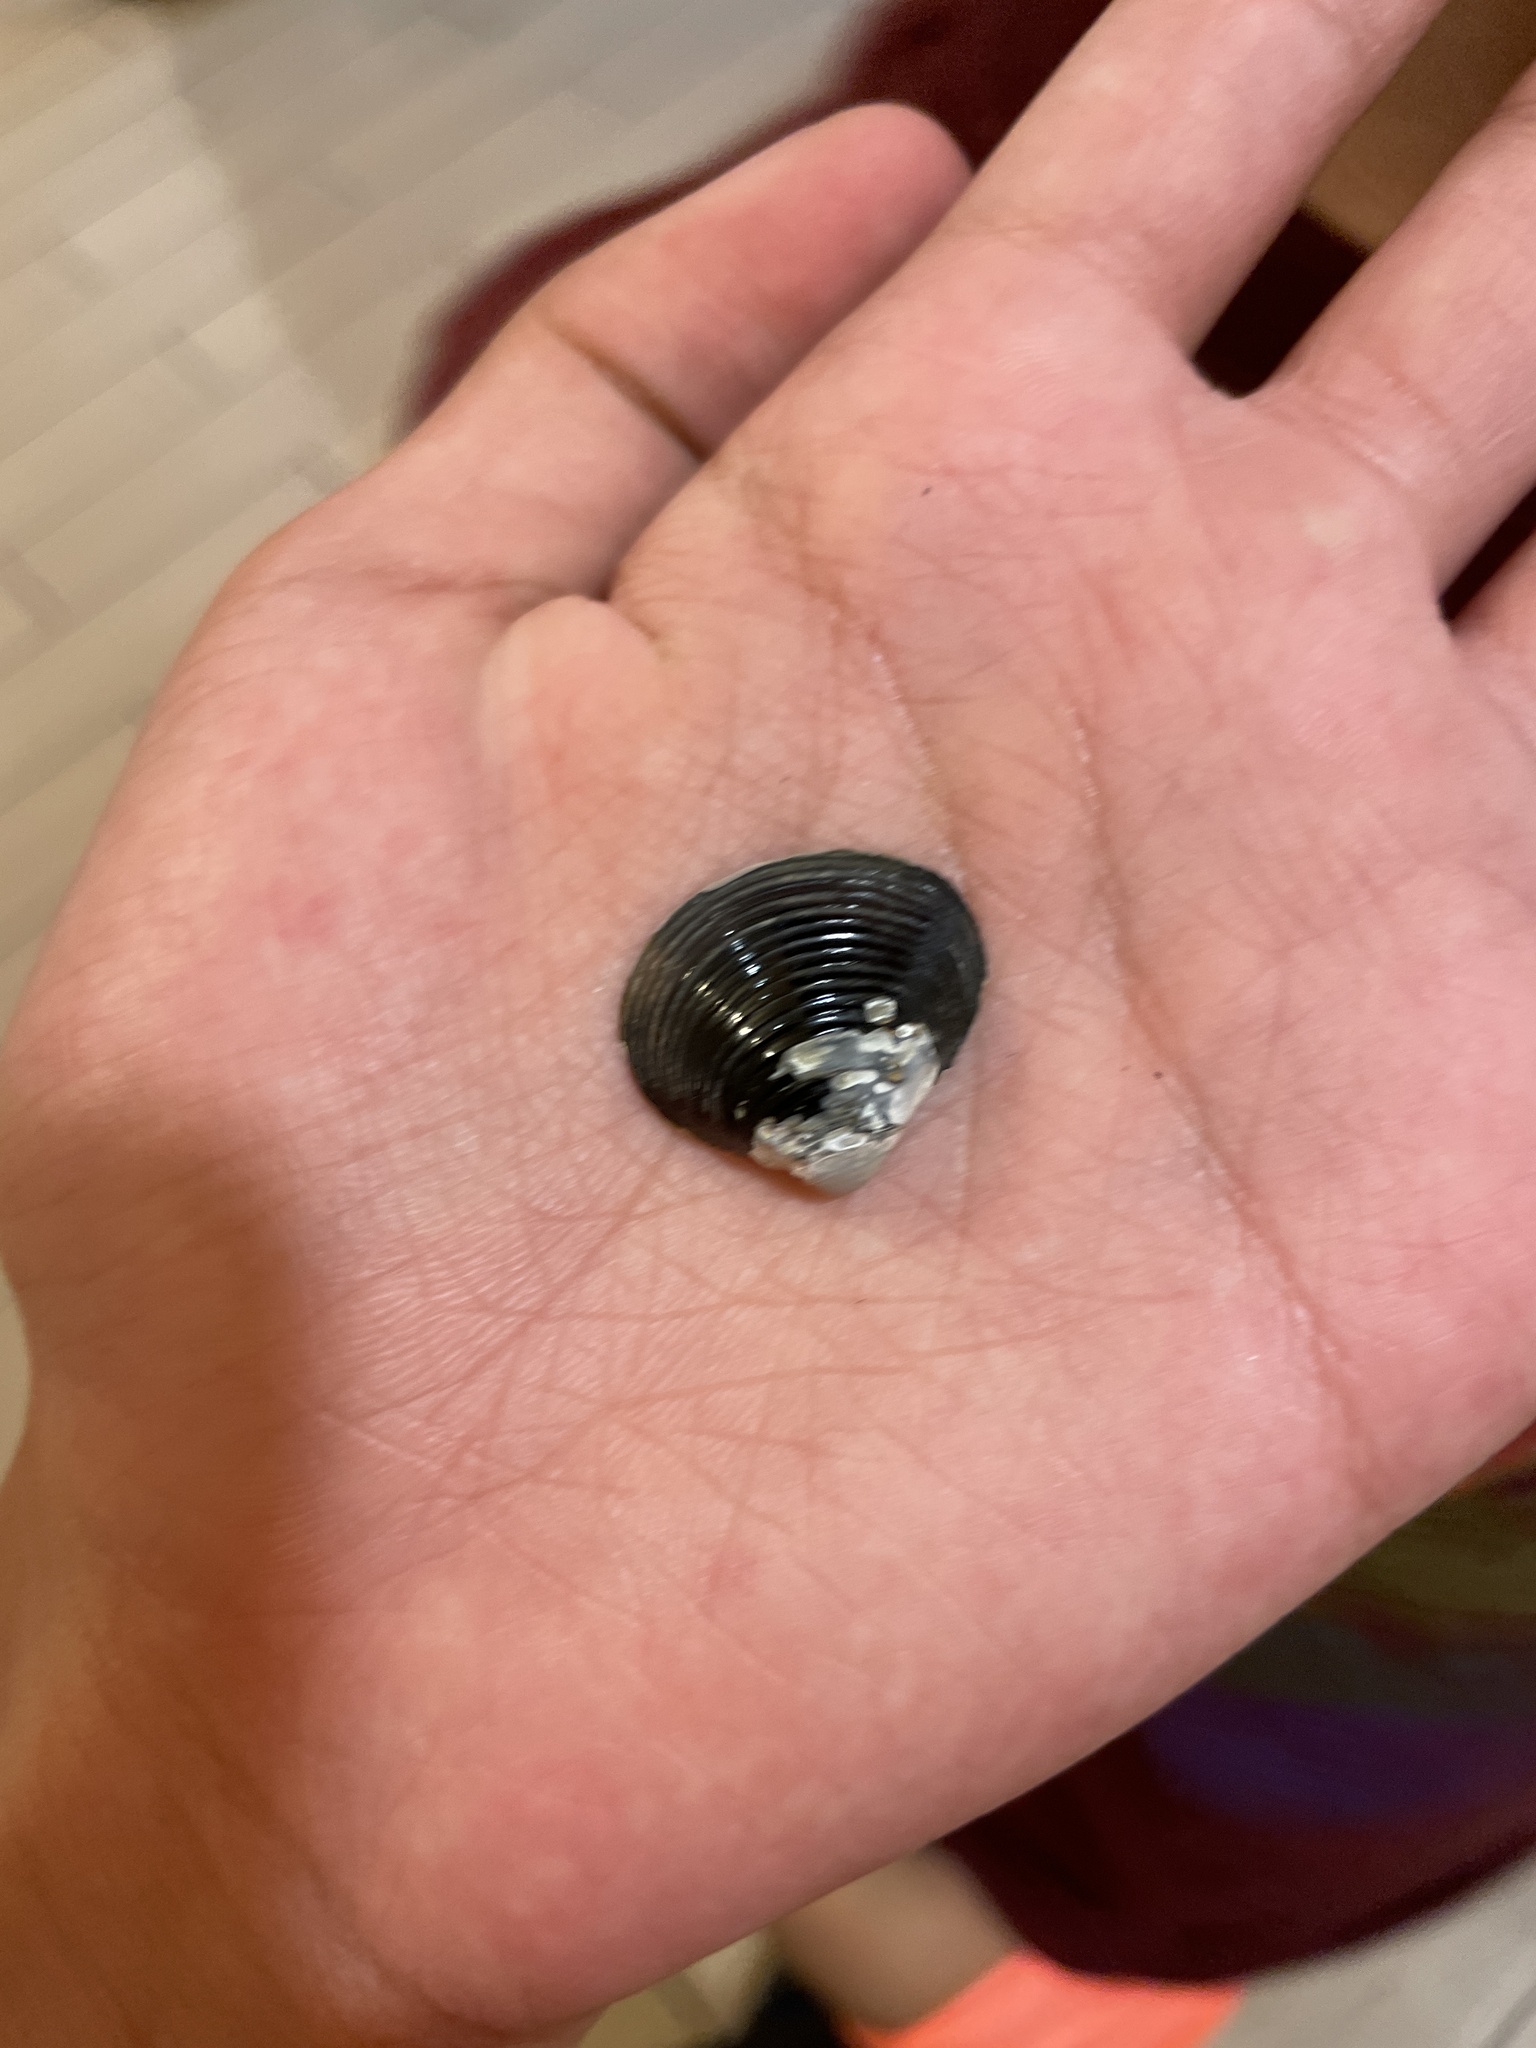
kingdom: Animalia
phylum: Mollusca
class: Bivalvia
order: Venerida
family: Cyrenidae
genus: Corbicula
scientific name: Corbicula fluminea
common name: Asian clam
